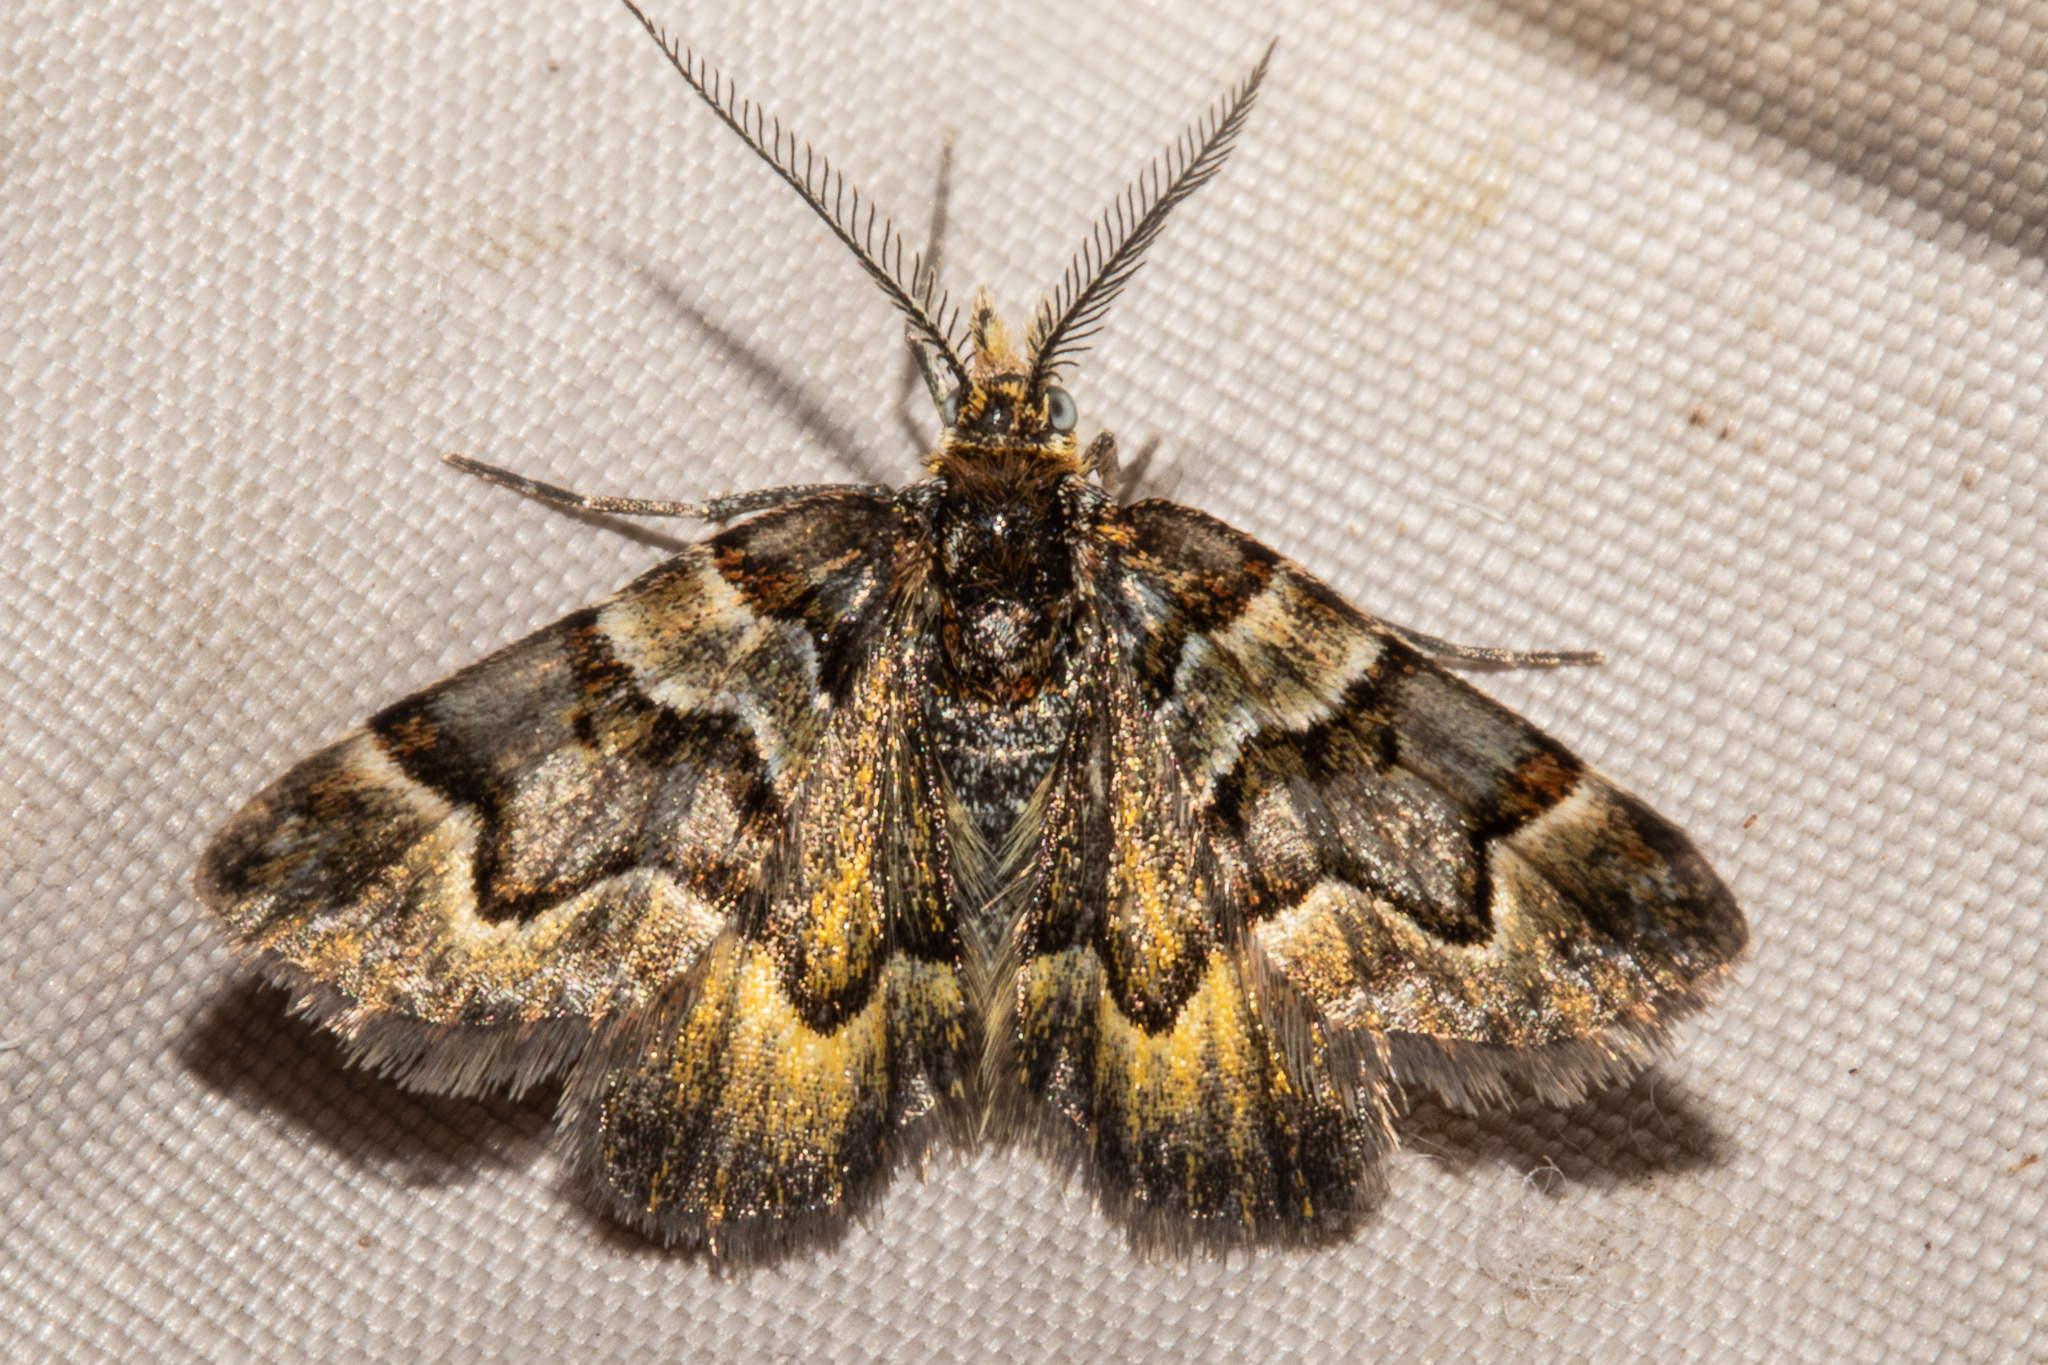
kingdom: Animalia
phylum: Arthropoda
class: Insecta
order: Lepidoptera
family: Geometridae
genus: Arctesthes
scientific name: Arctesthes siris
